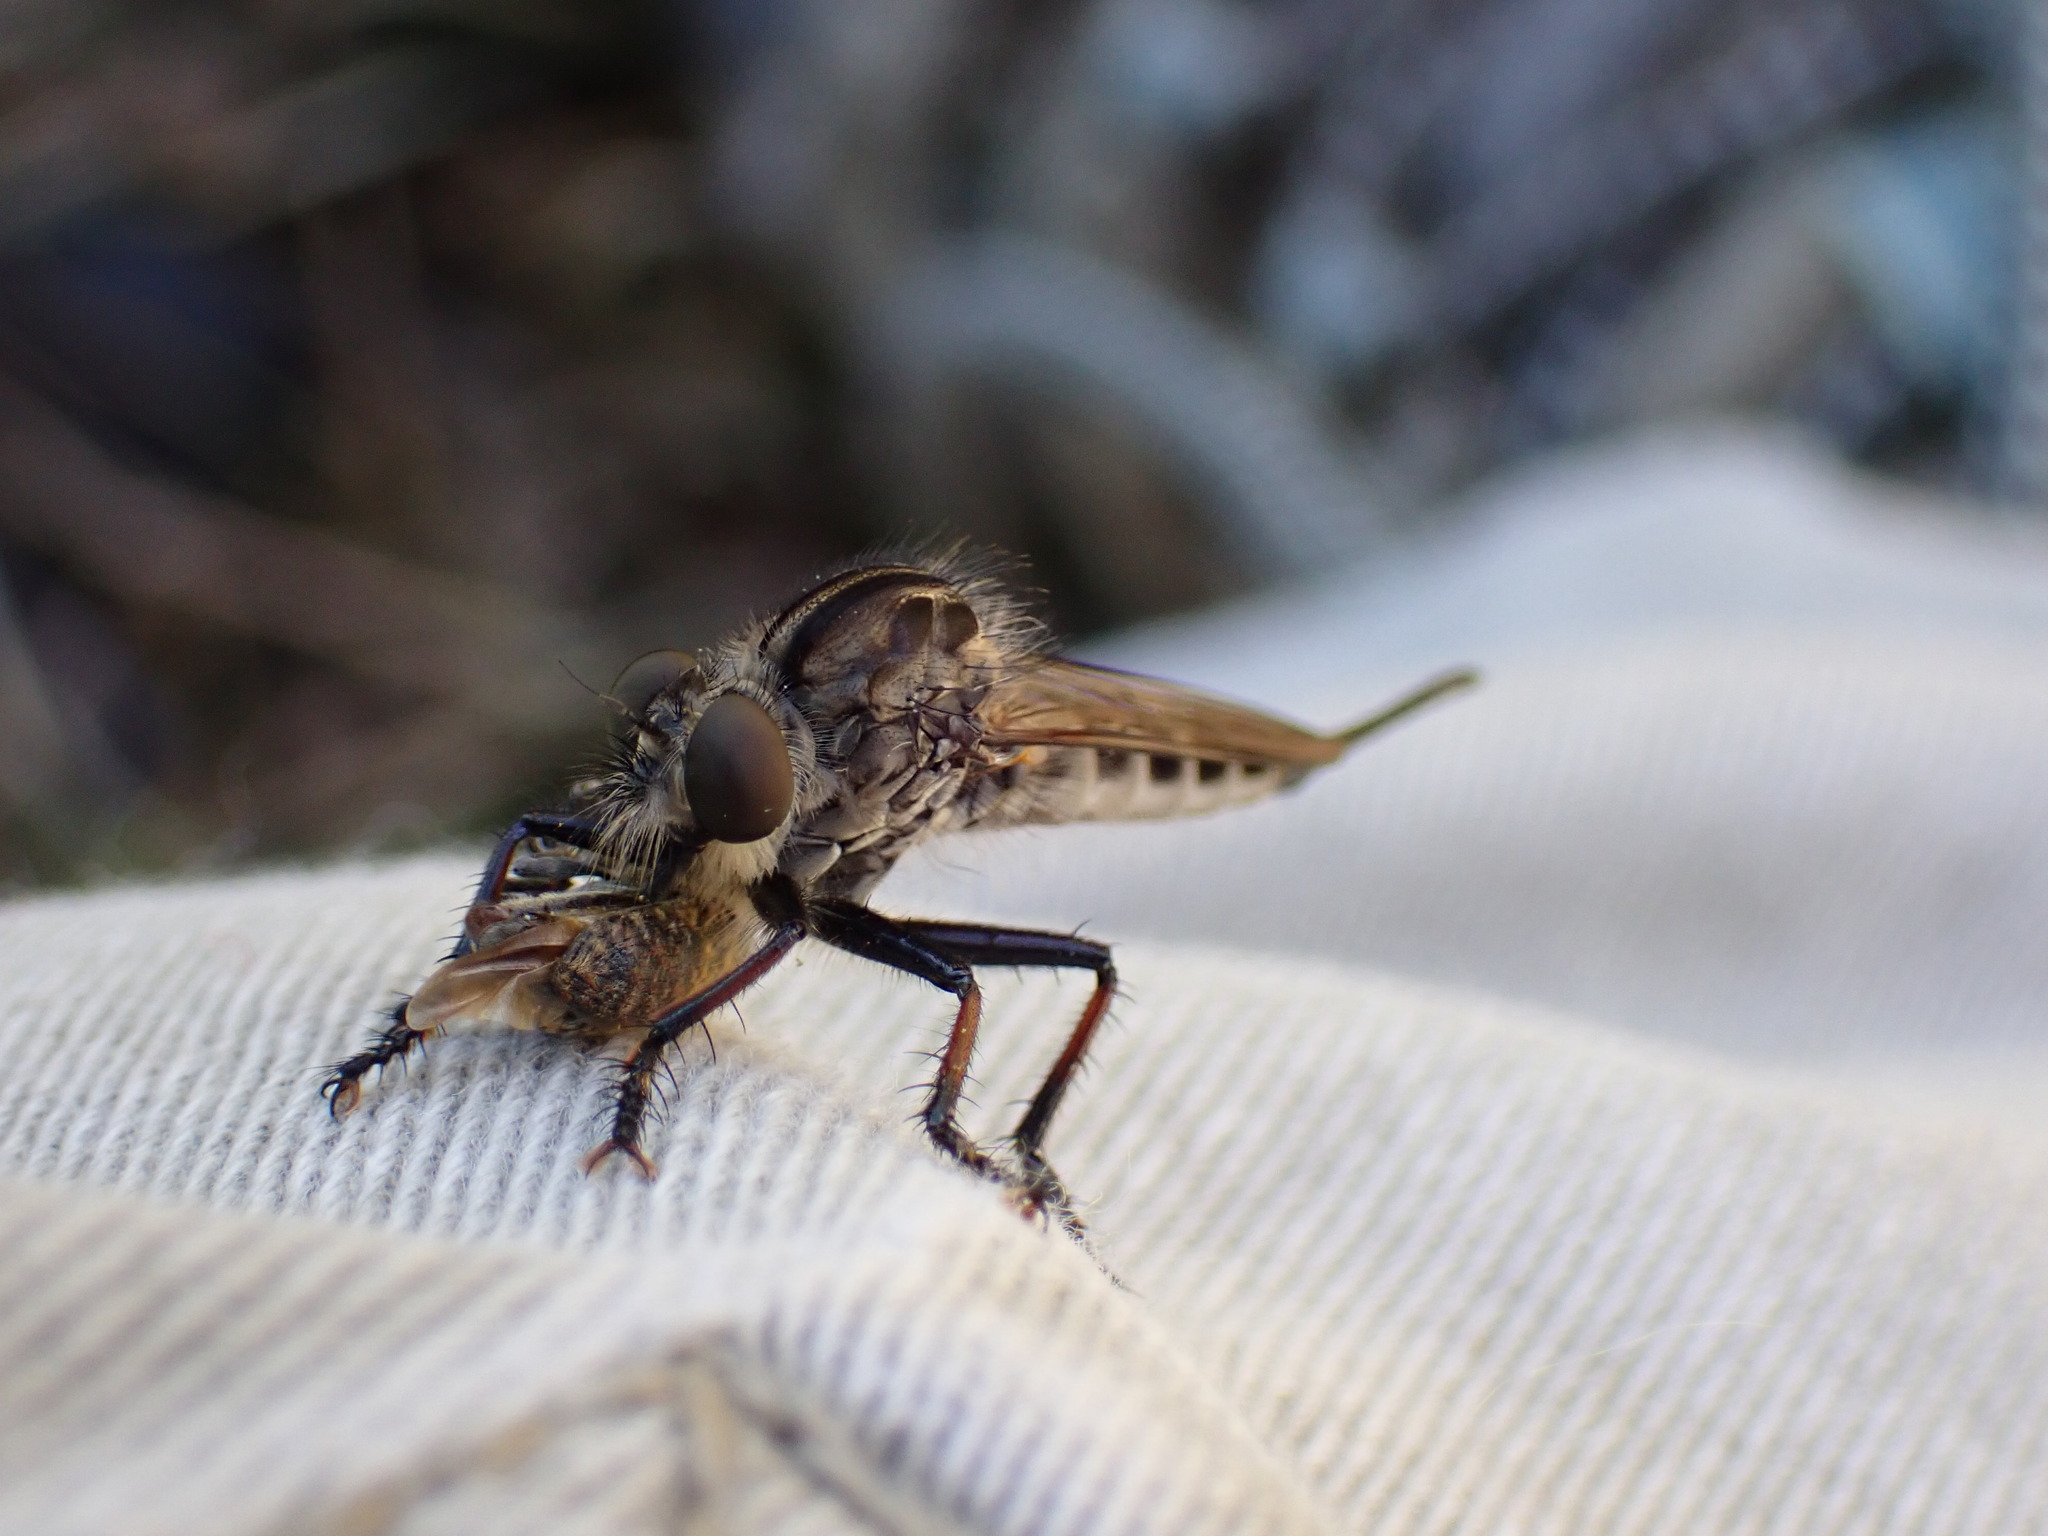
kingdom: Animalia
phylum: Arthropoda
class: Insecta
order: Diptera
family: Asilidae
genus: Efferia
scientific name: Efferia
